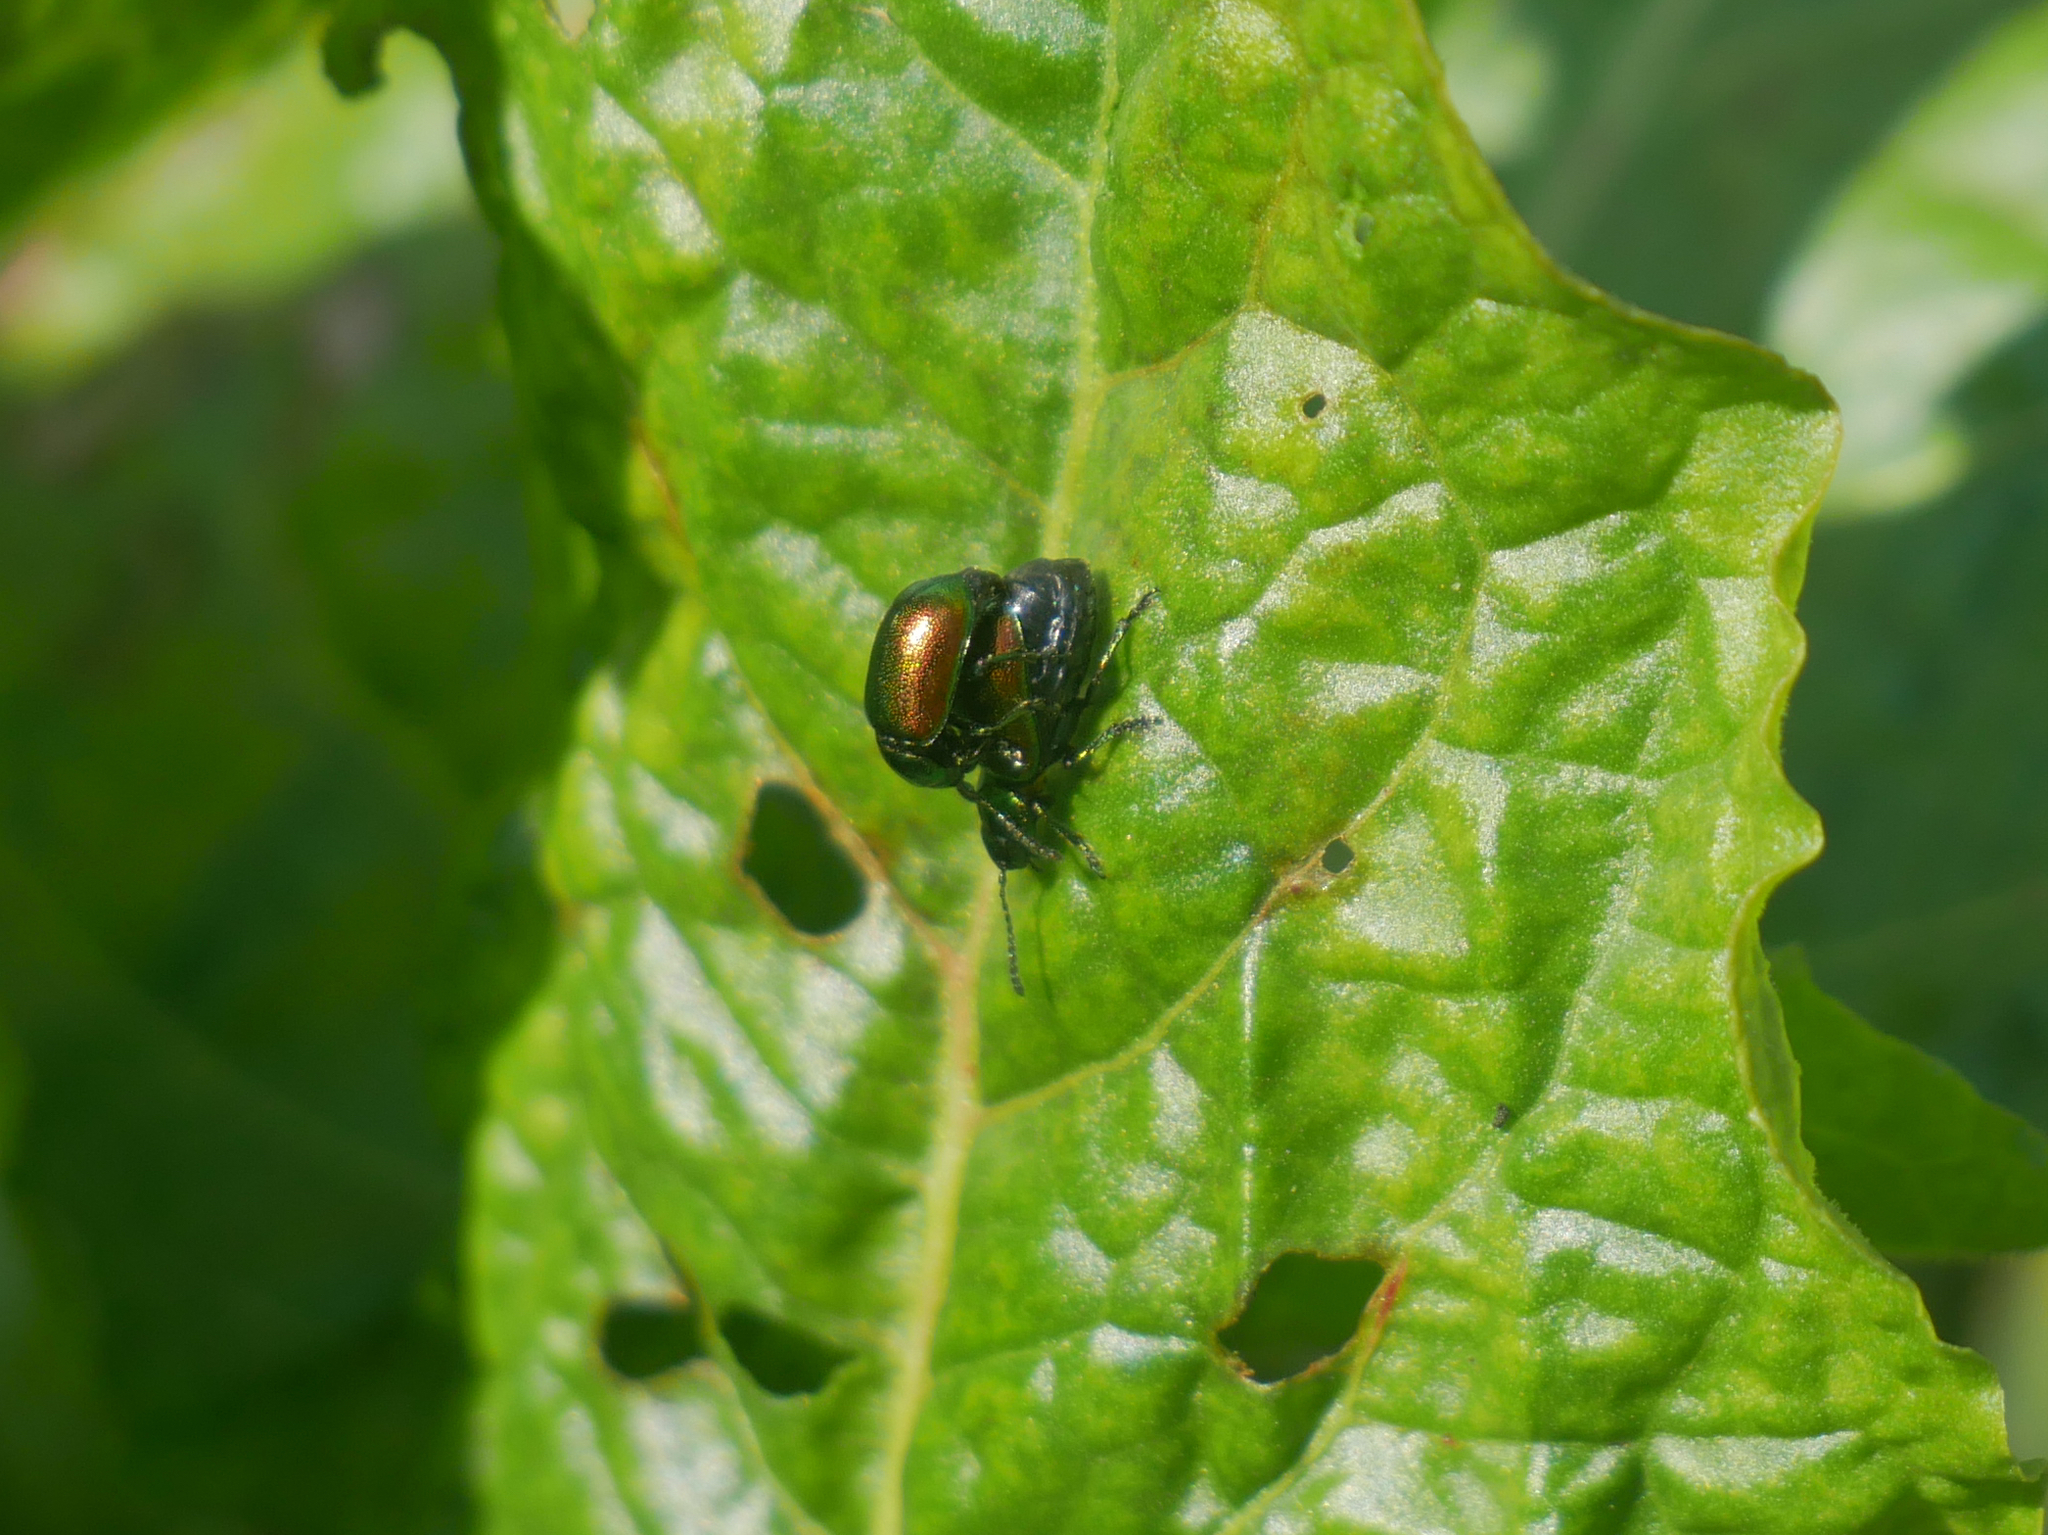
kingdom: Animalia
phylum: Arthropoda
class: Insecta
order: Coleoptera
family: Chrysomelidae
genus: Gastrophysa
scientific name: Gastrophysa viridula
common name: Green dock beetle
